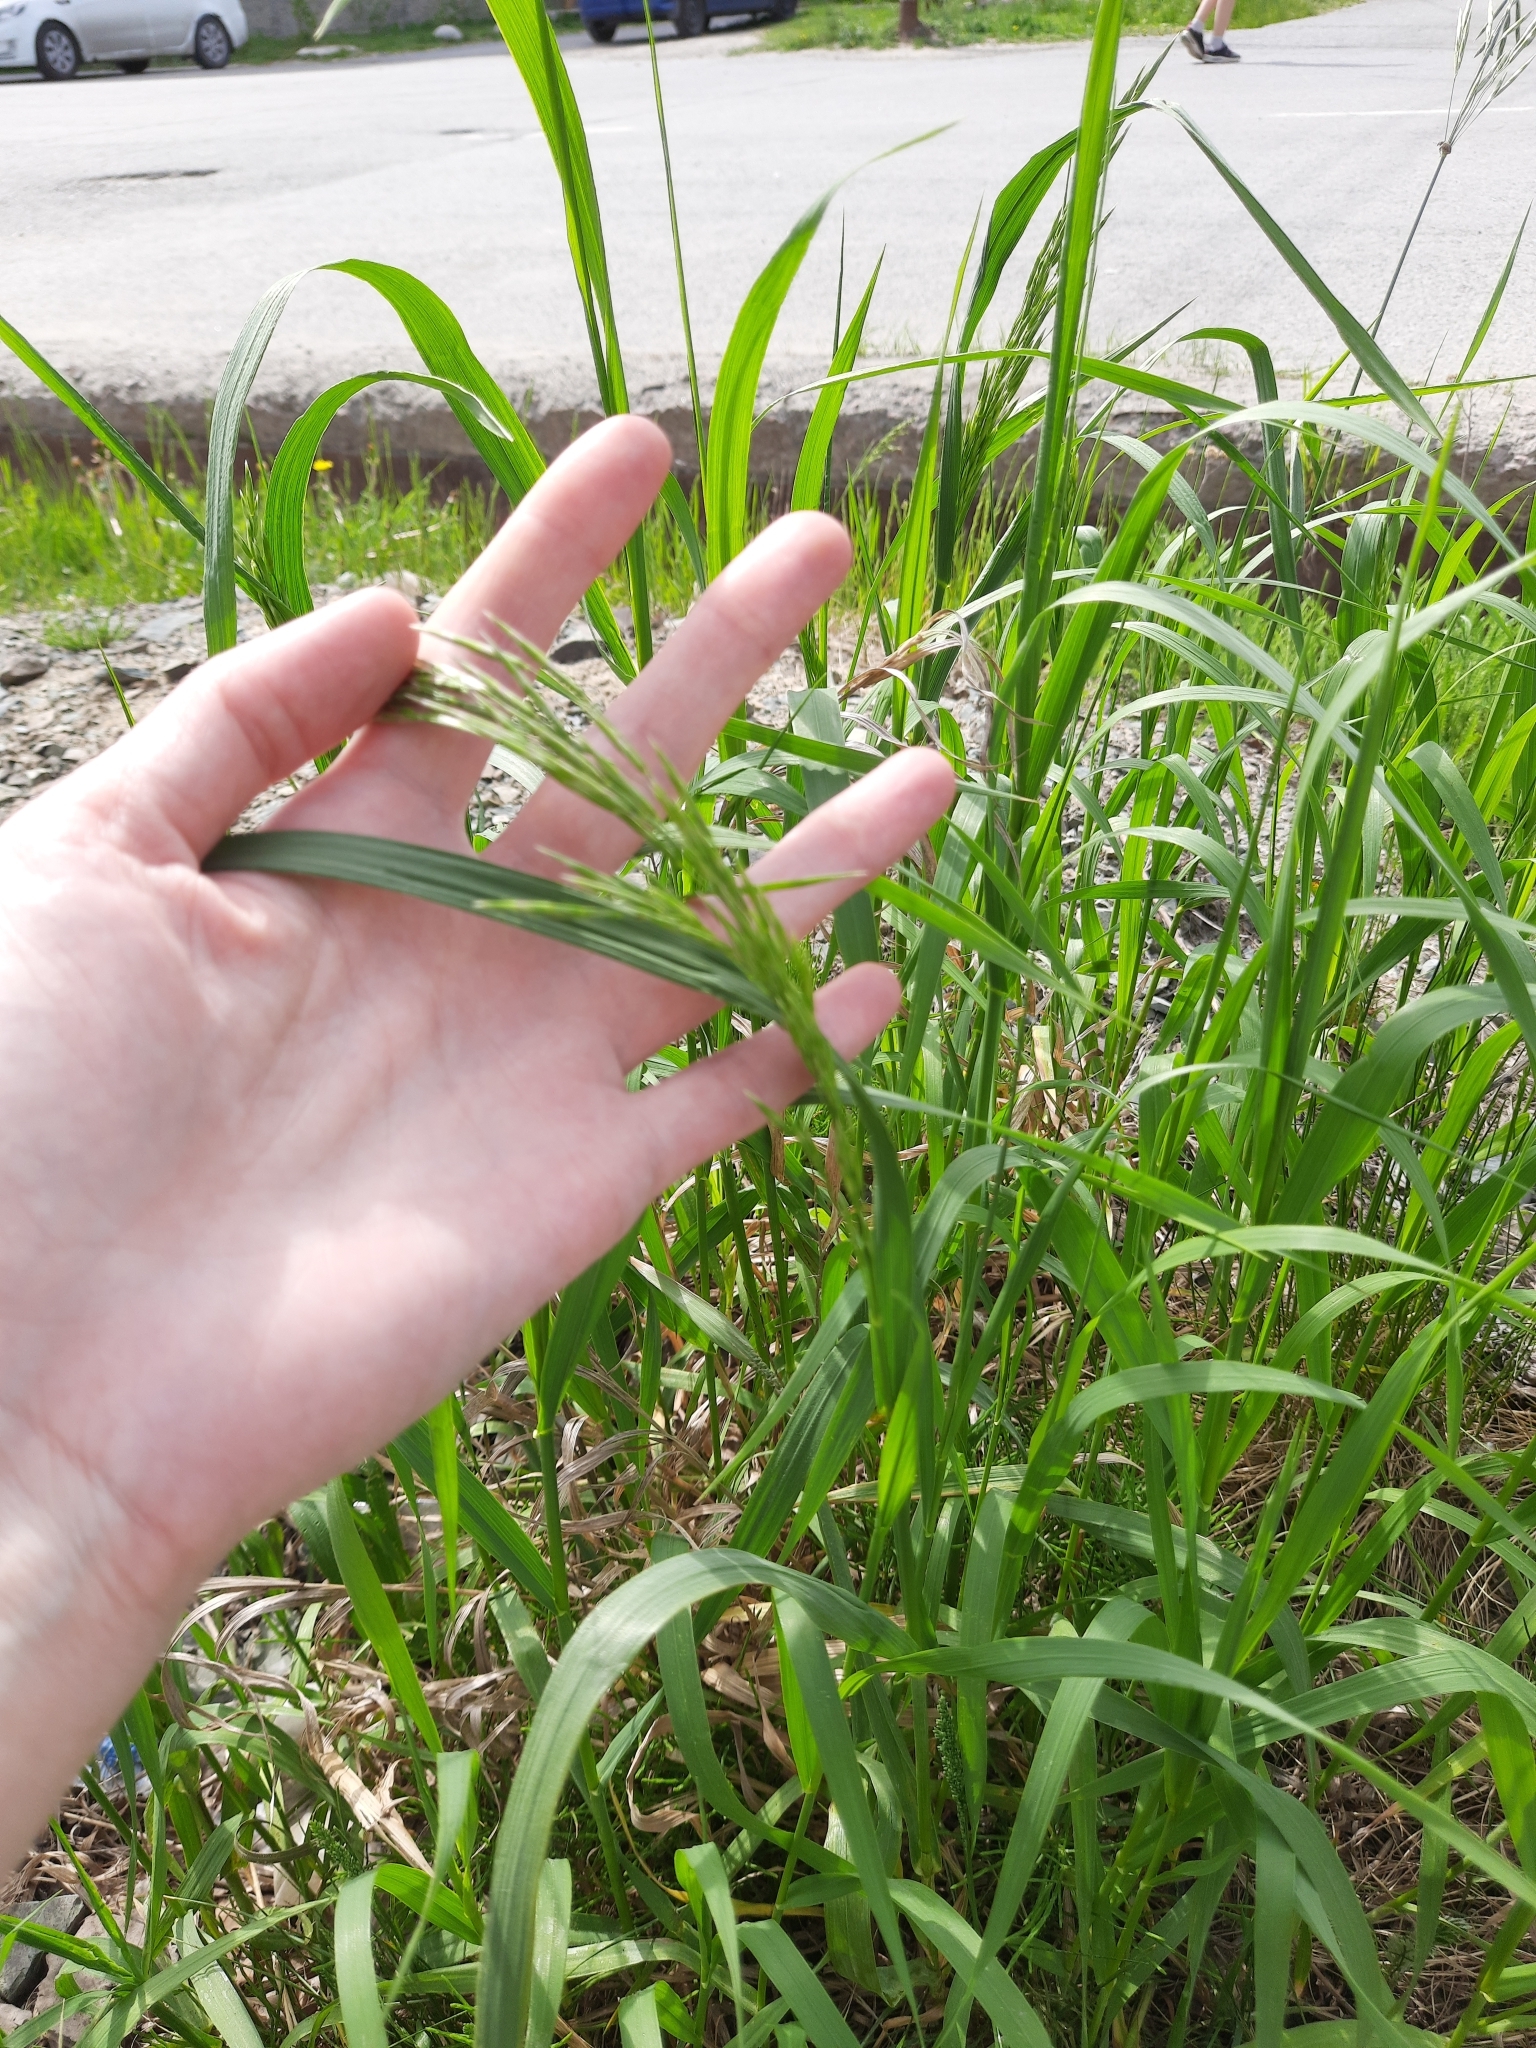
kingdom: Plantae
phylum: Tracheophyta
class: Liliopsida
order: Poales
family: Poaceae
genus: Bromus
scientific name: Bromus inermis
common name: Smooth brome
